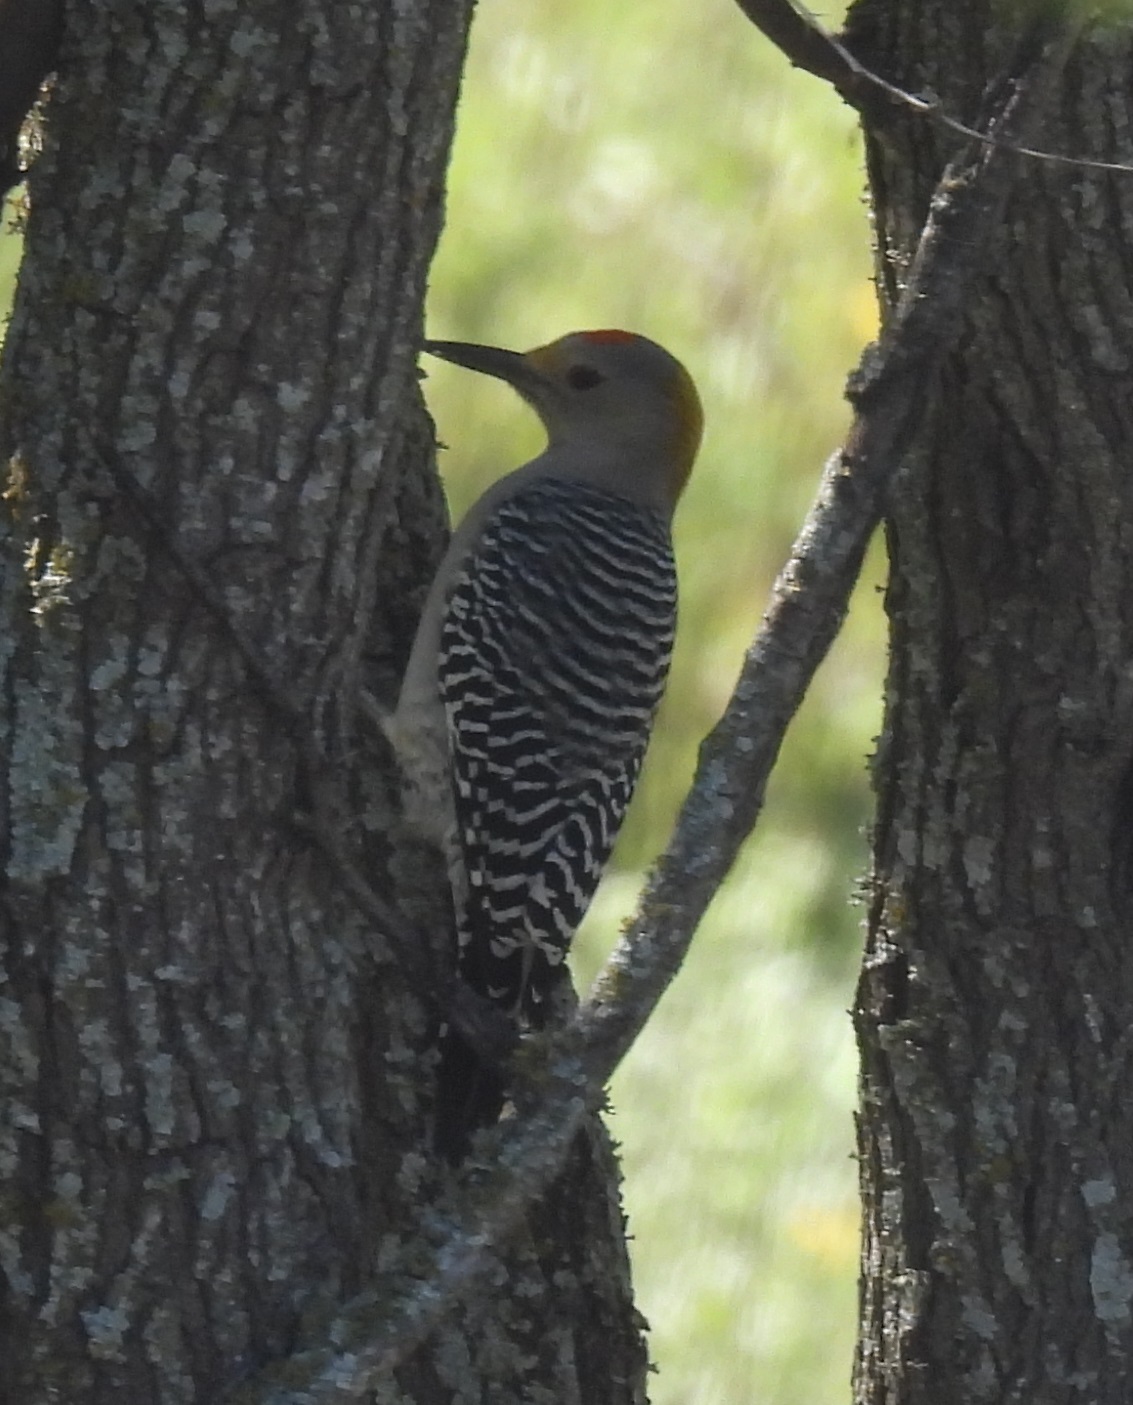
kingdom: Animalia
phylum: Chordata
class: Aves
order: Piciformes
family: Picidae
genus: Melanerpes
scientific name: Melanerpes aurifrons
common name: Golden-fronted woodpecker
